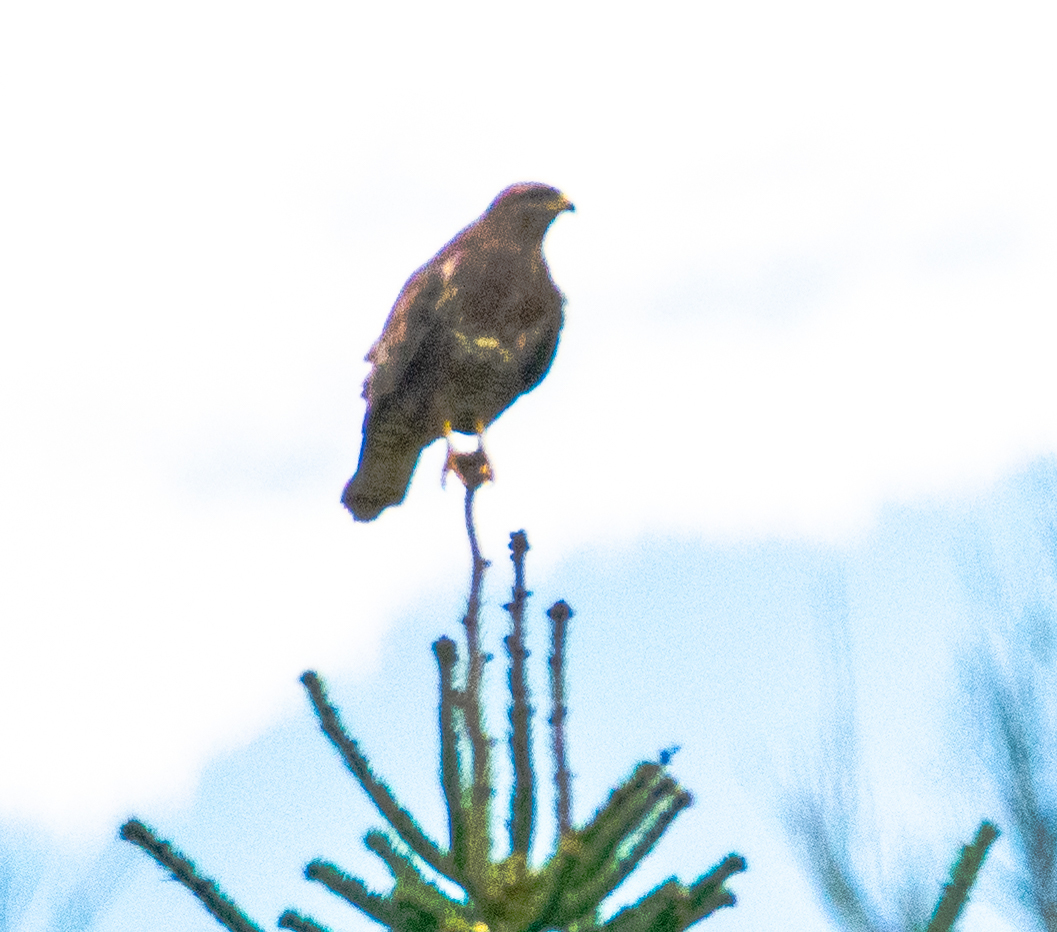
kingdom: Animalia
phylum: Chordata
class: Aves
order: Accipitriformes
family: Accipitridae
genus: Buteo
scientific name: Buteo buteo
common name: Common buzzard
